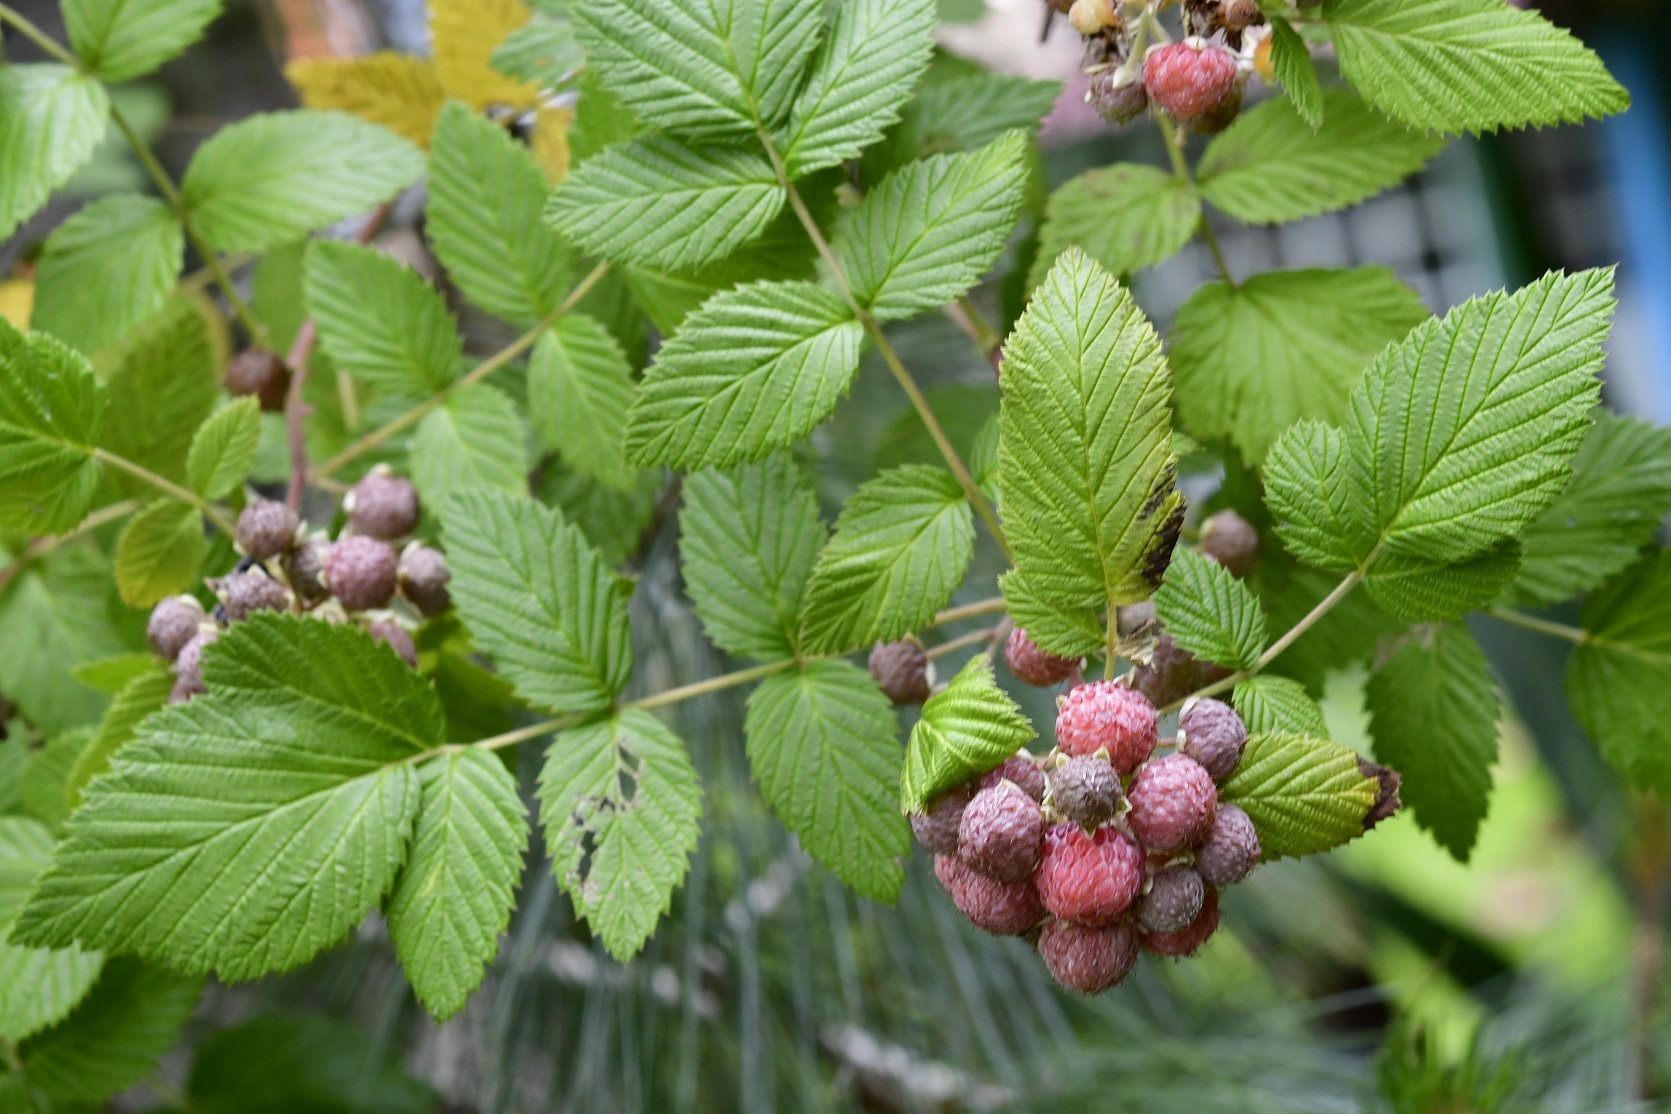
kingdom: Plantae
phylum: Tracheophyta
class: Magnoliopsida
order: Rosales
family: Rosaceae
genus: Rubus
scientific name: Rubus niveus
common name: Snowpeaks raspberry
